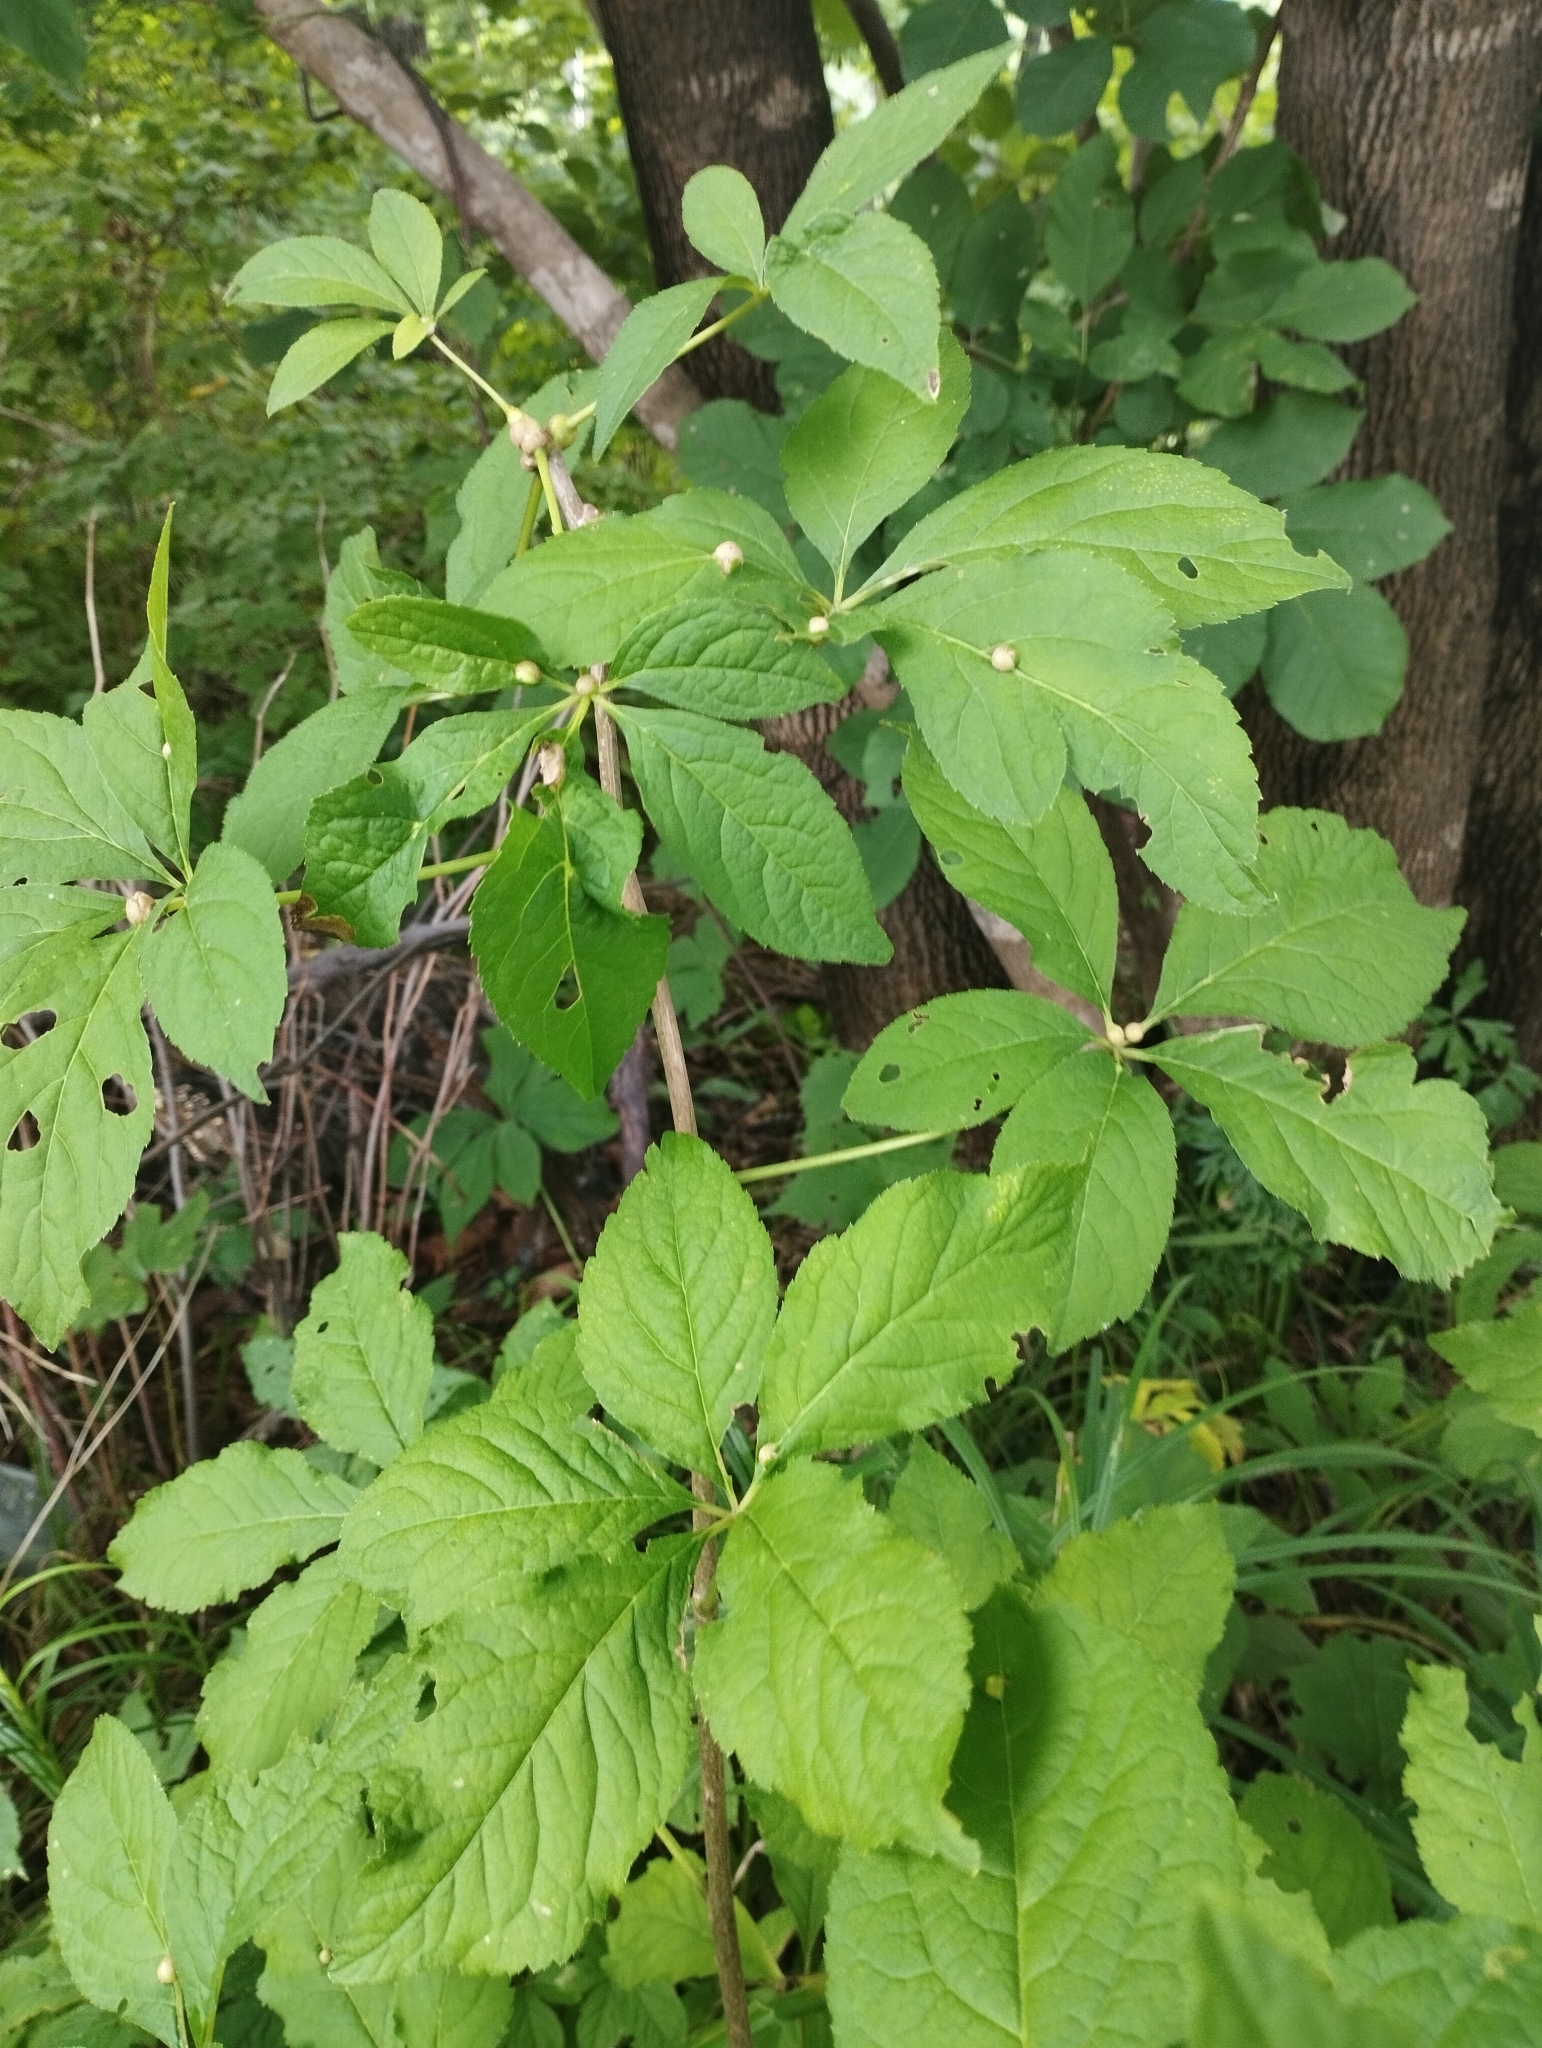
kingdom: Plantae
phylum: Tracheophyta
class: Magnoliopsida
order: Apiales
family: Araliaceae
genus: Eleutherococcus
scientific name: Eleutherococcus sessiliflorus
